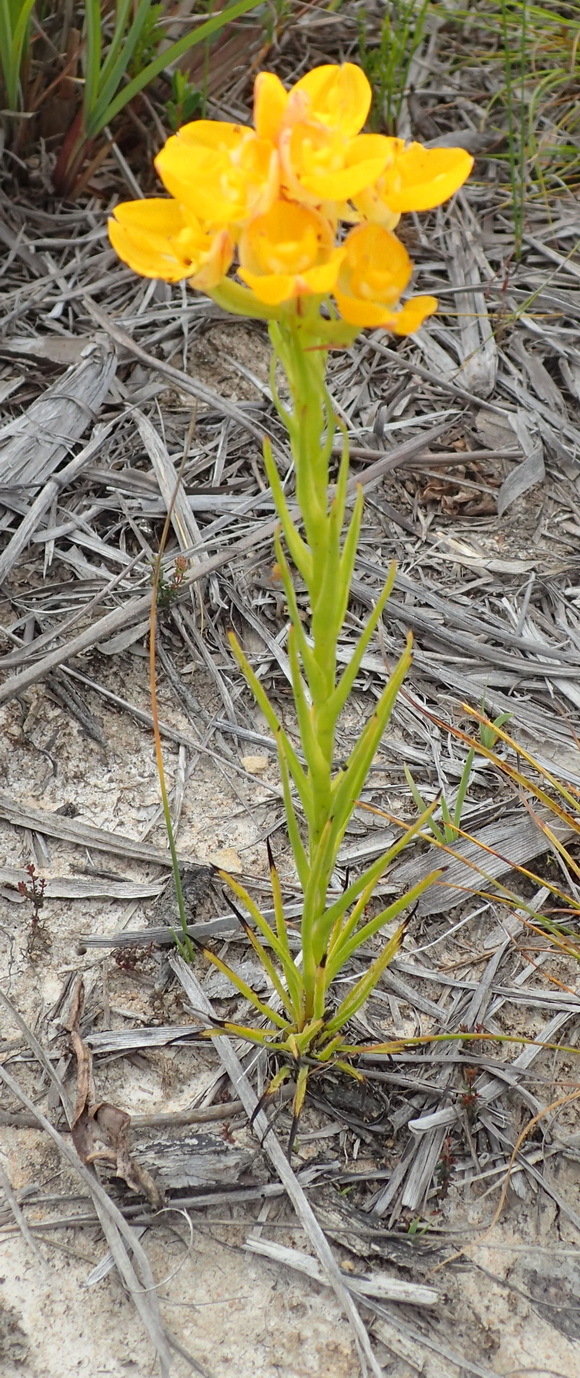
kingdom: Plantae
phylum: Tracheophyta
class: Liliopsida
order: Asparagales
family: Orchidaceae
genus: Ceratandra
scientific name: Ceratandra grandiflora
